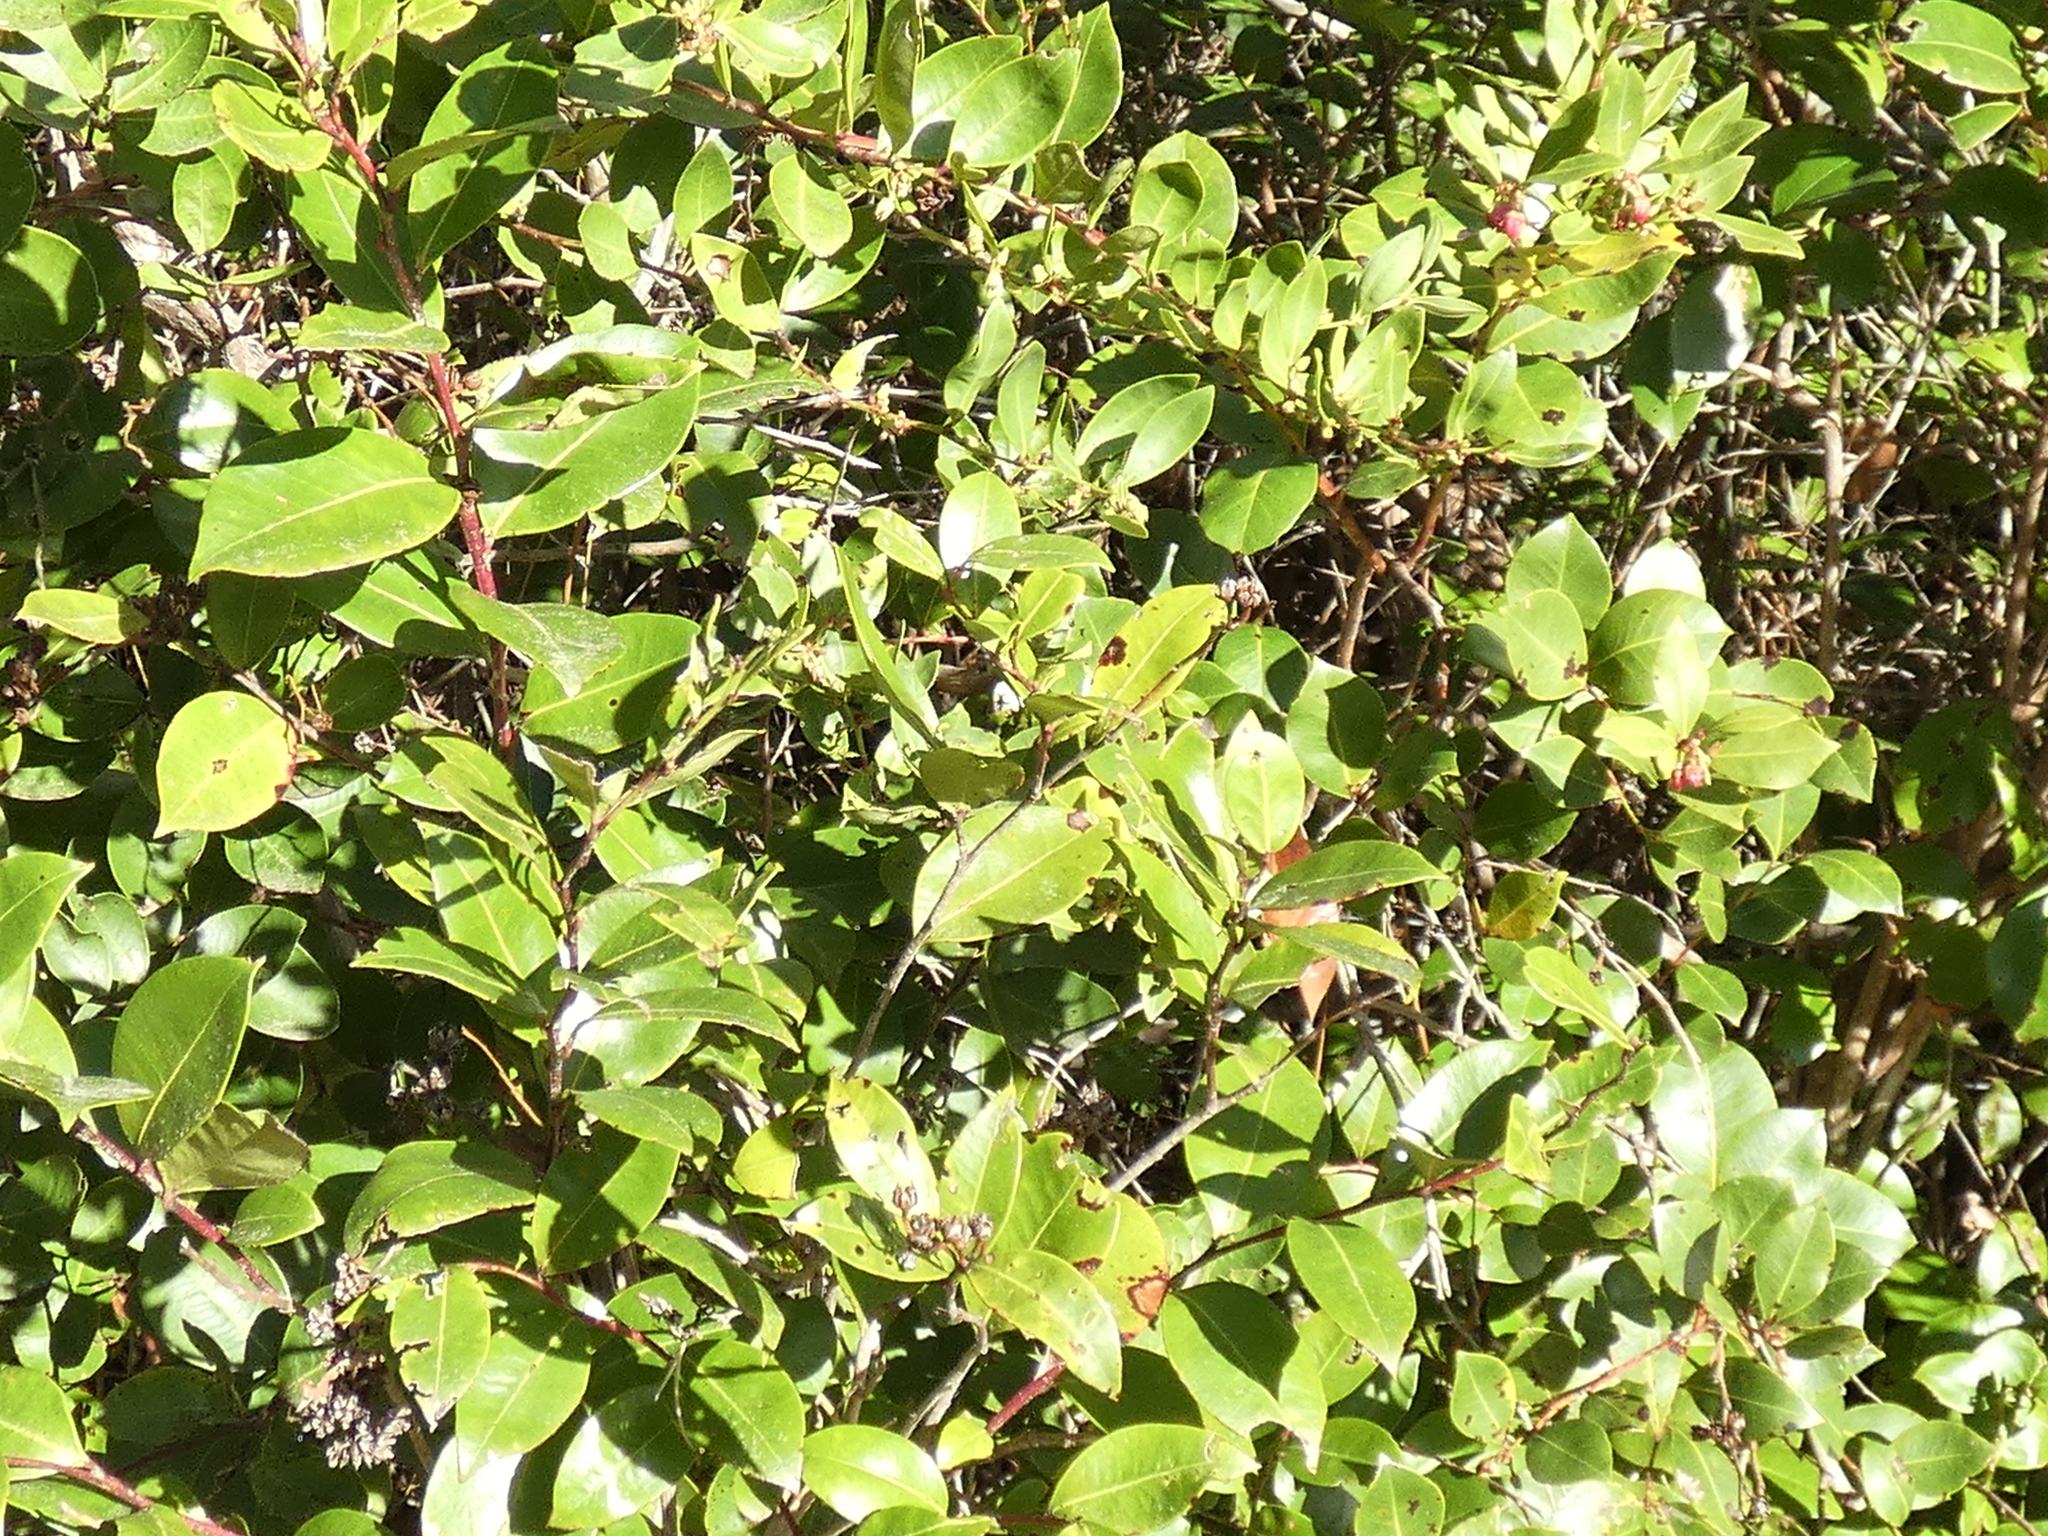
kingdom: Plantae
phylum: Tracheophyta
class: Magnoliopsida
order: Ericales
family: Ericaceae
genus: Lyonia
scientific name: Lyonia lucida
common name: Fetterbush
